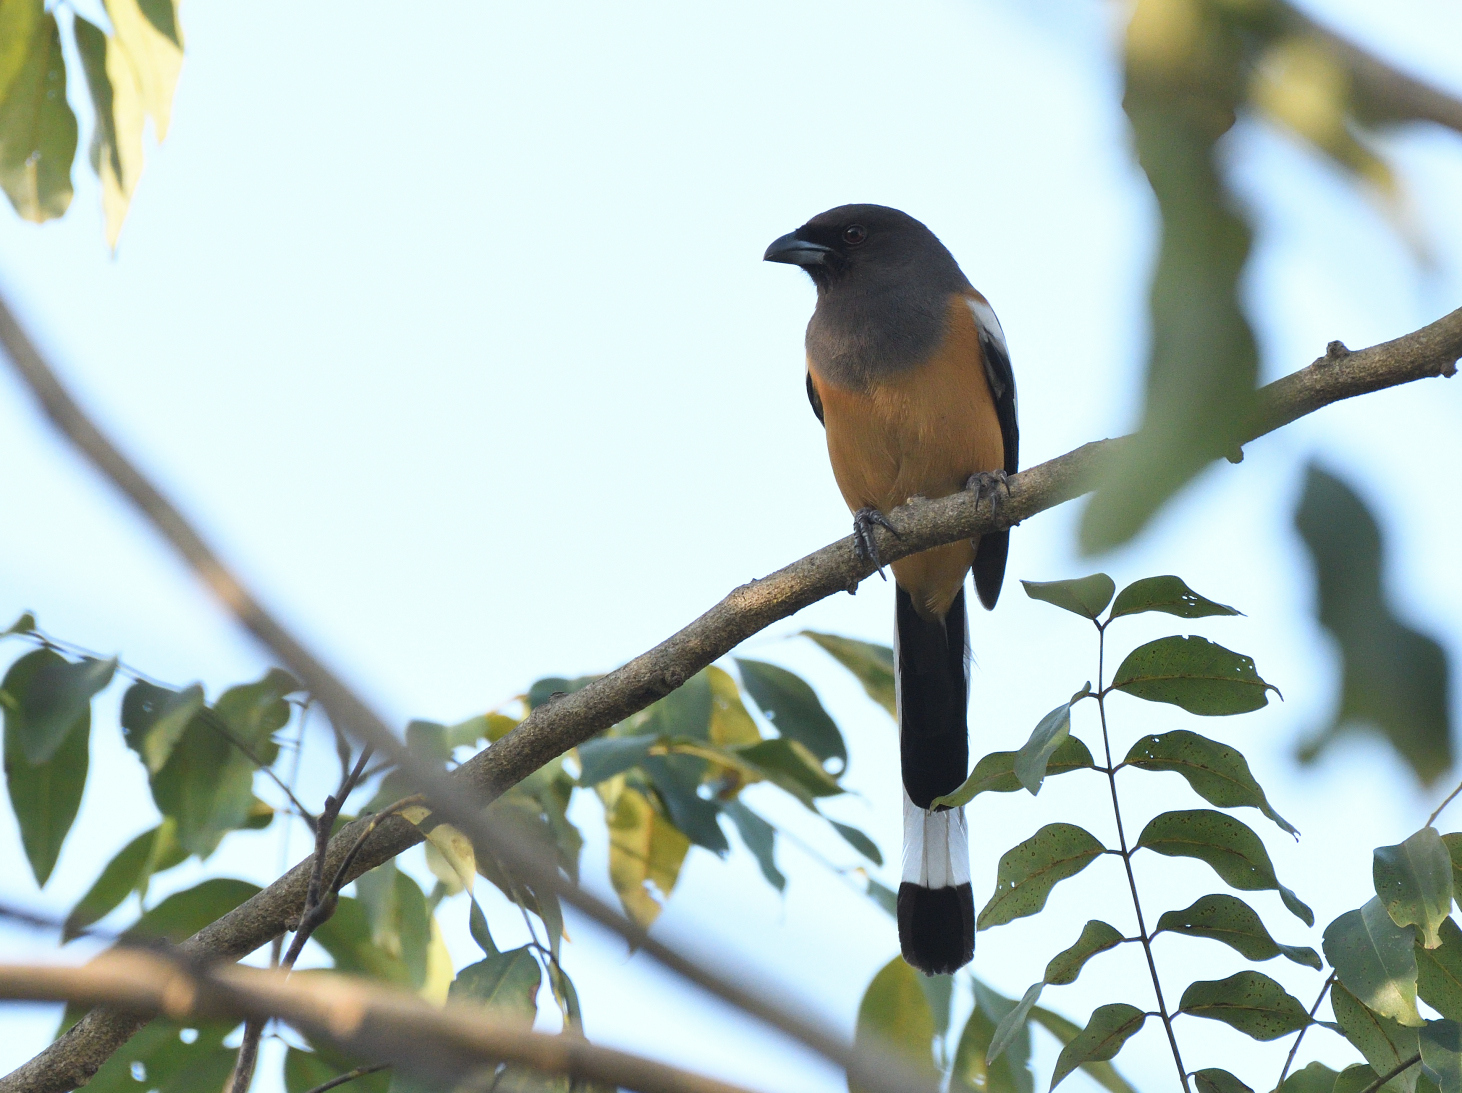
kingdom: Animalia
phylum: Chordata
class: Aves
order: Passeriformes
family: Corvidae
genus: Dendrocitta
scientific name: Dendrocitta vagabunda
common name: Rufous treepie
